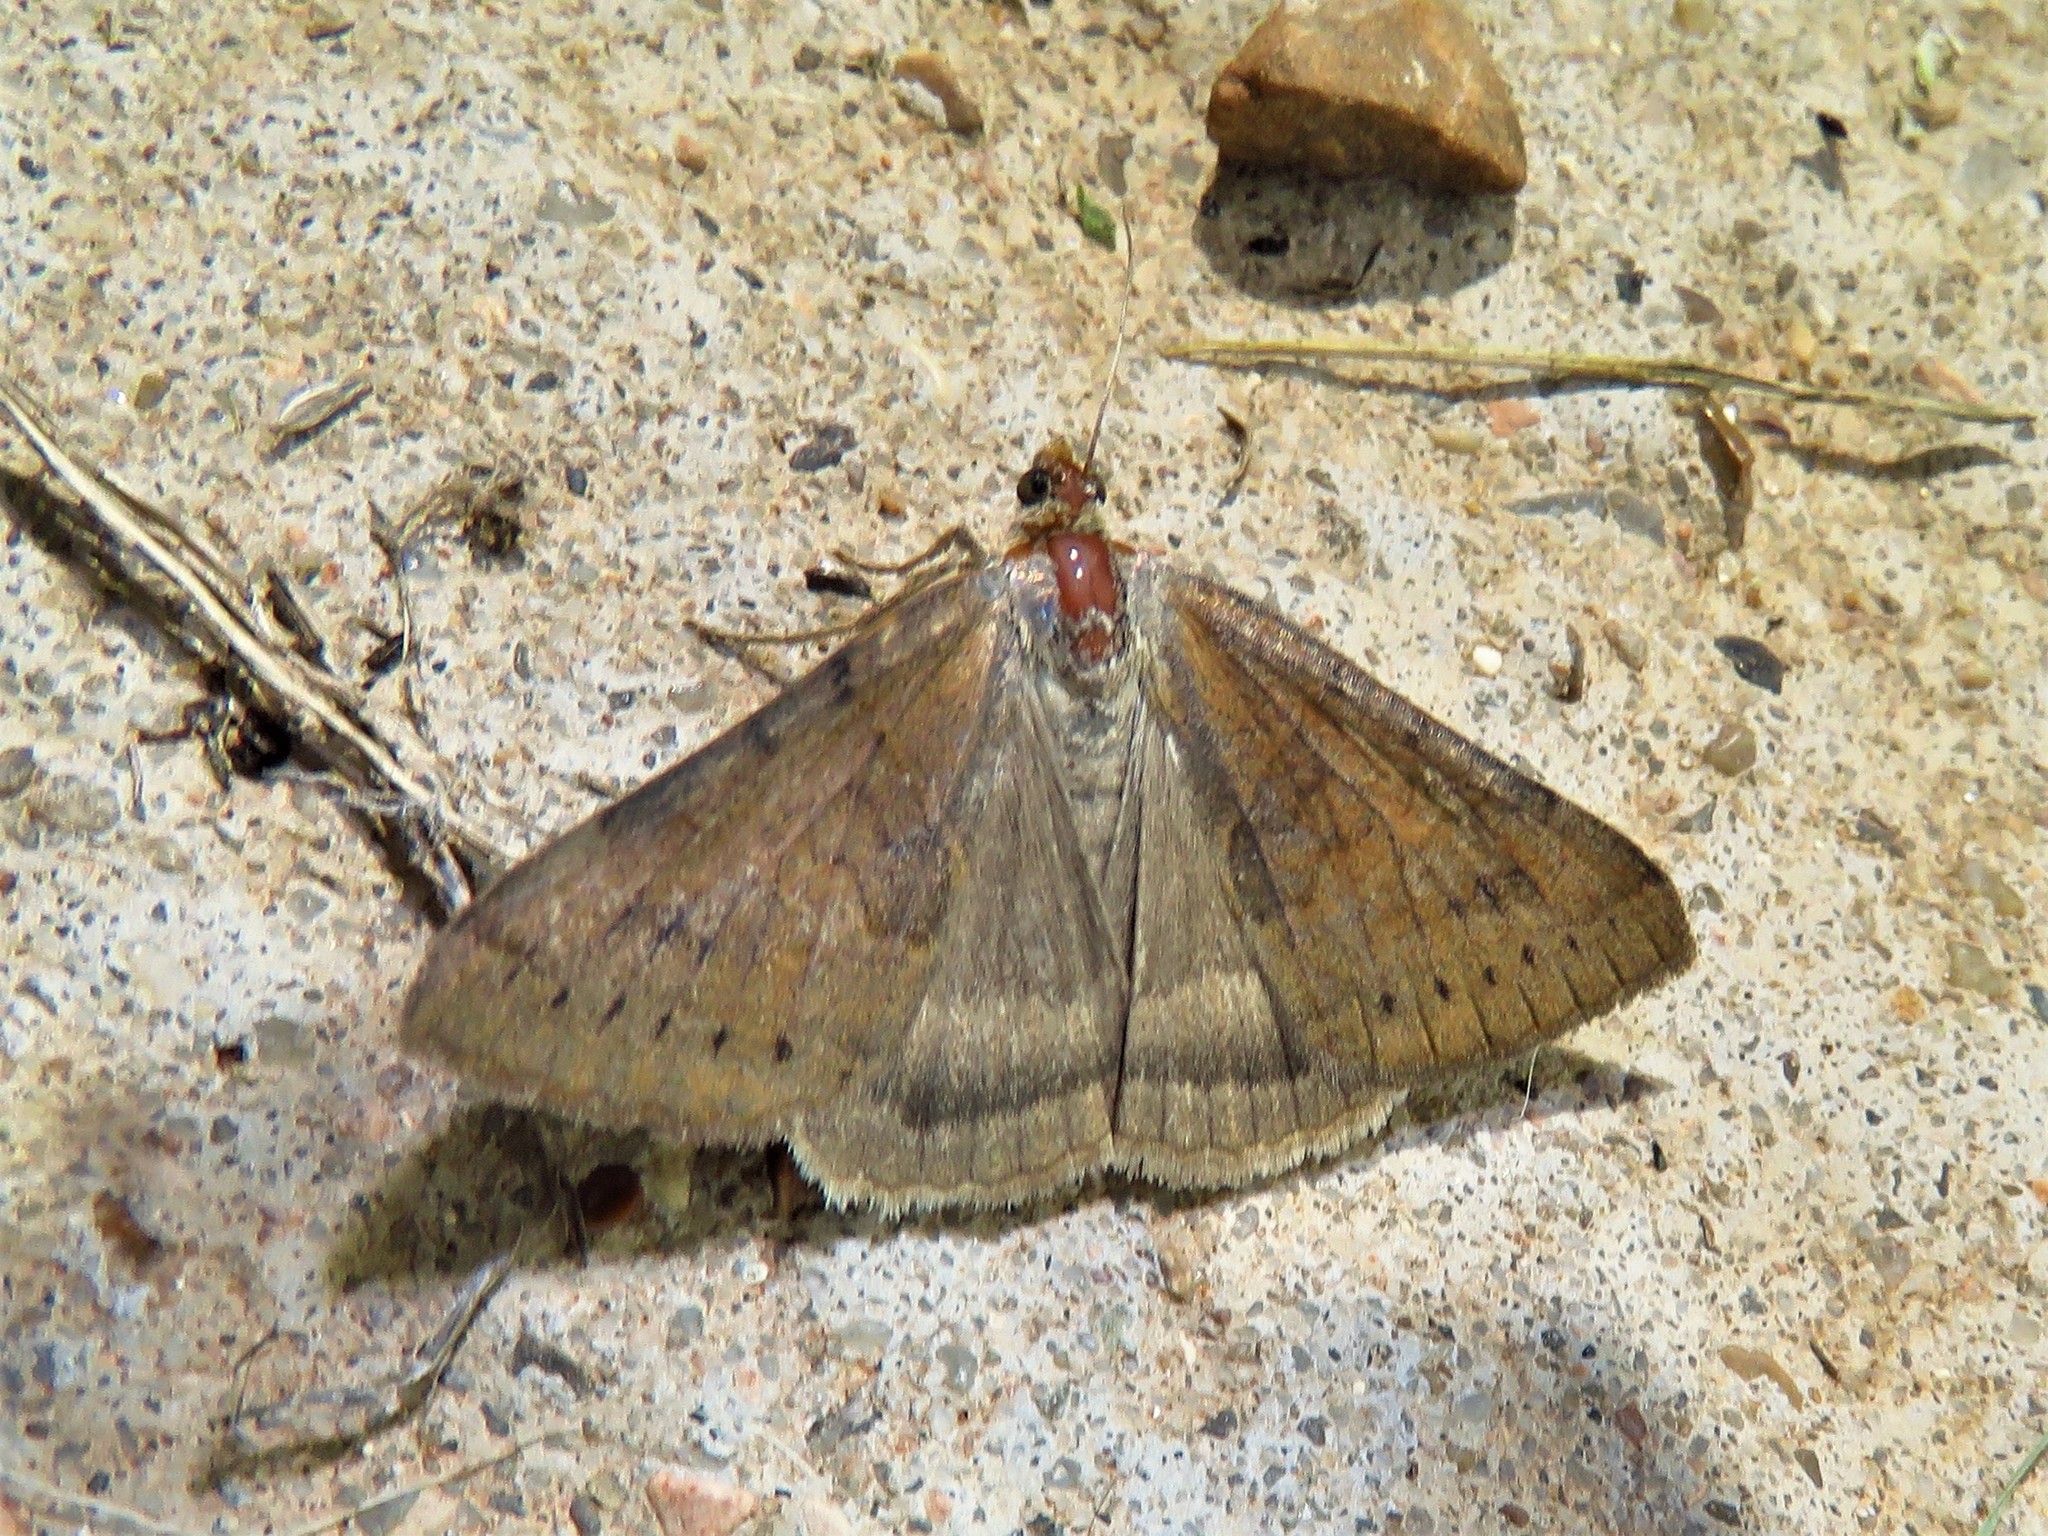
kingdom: Animalia
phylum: Arthropoda
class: Insecta
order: Lepidoptera
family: Erebidae
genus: Caenurgina
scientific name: Caenurgina erechtea
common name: Forage looper moth
